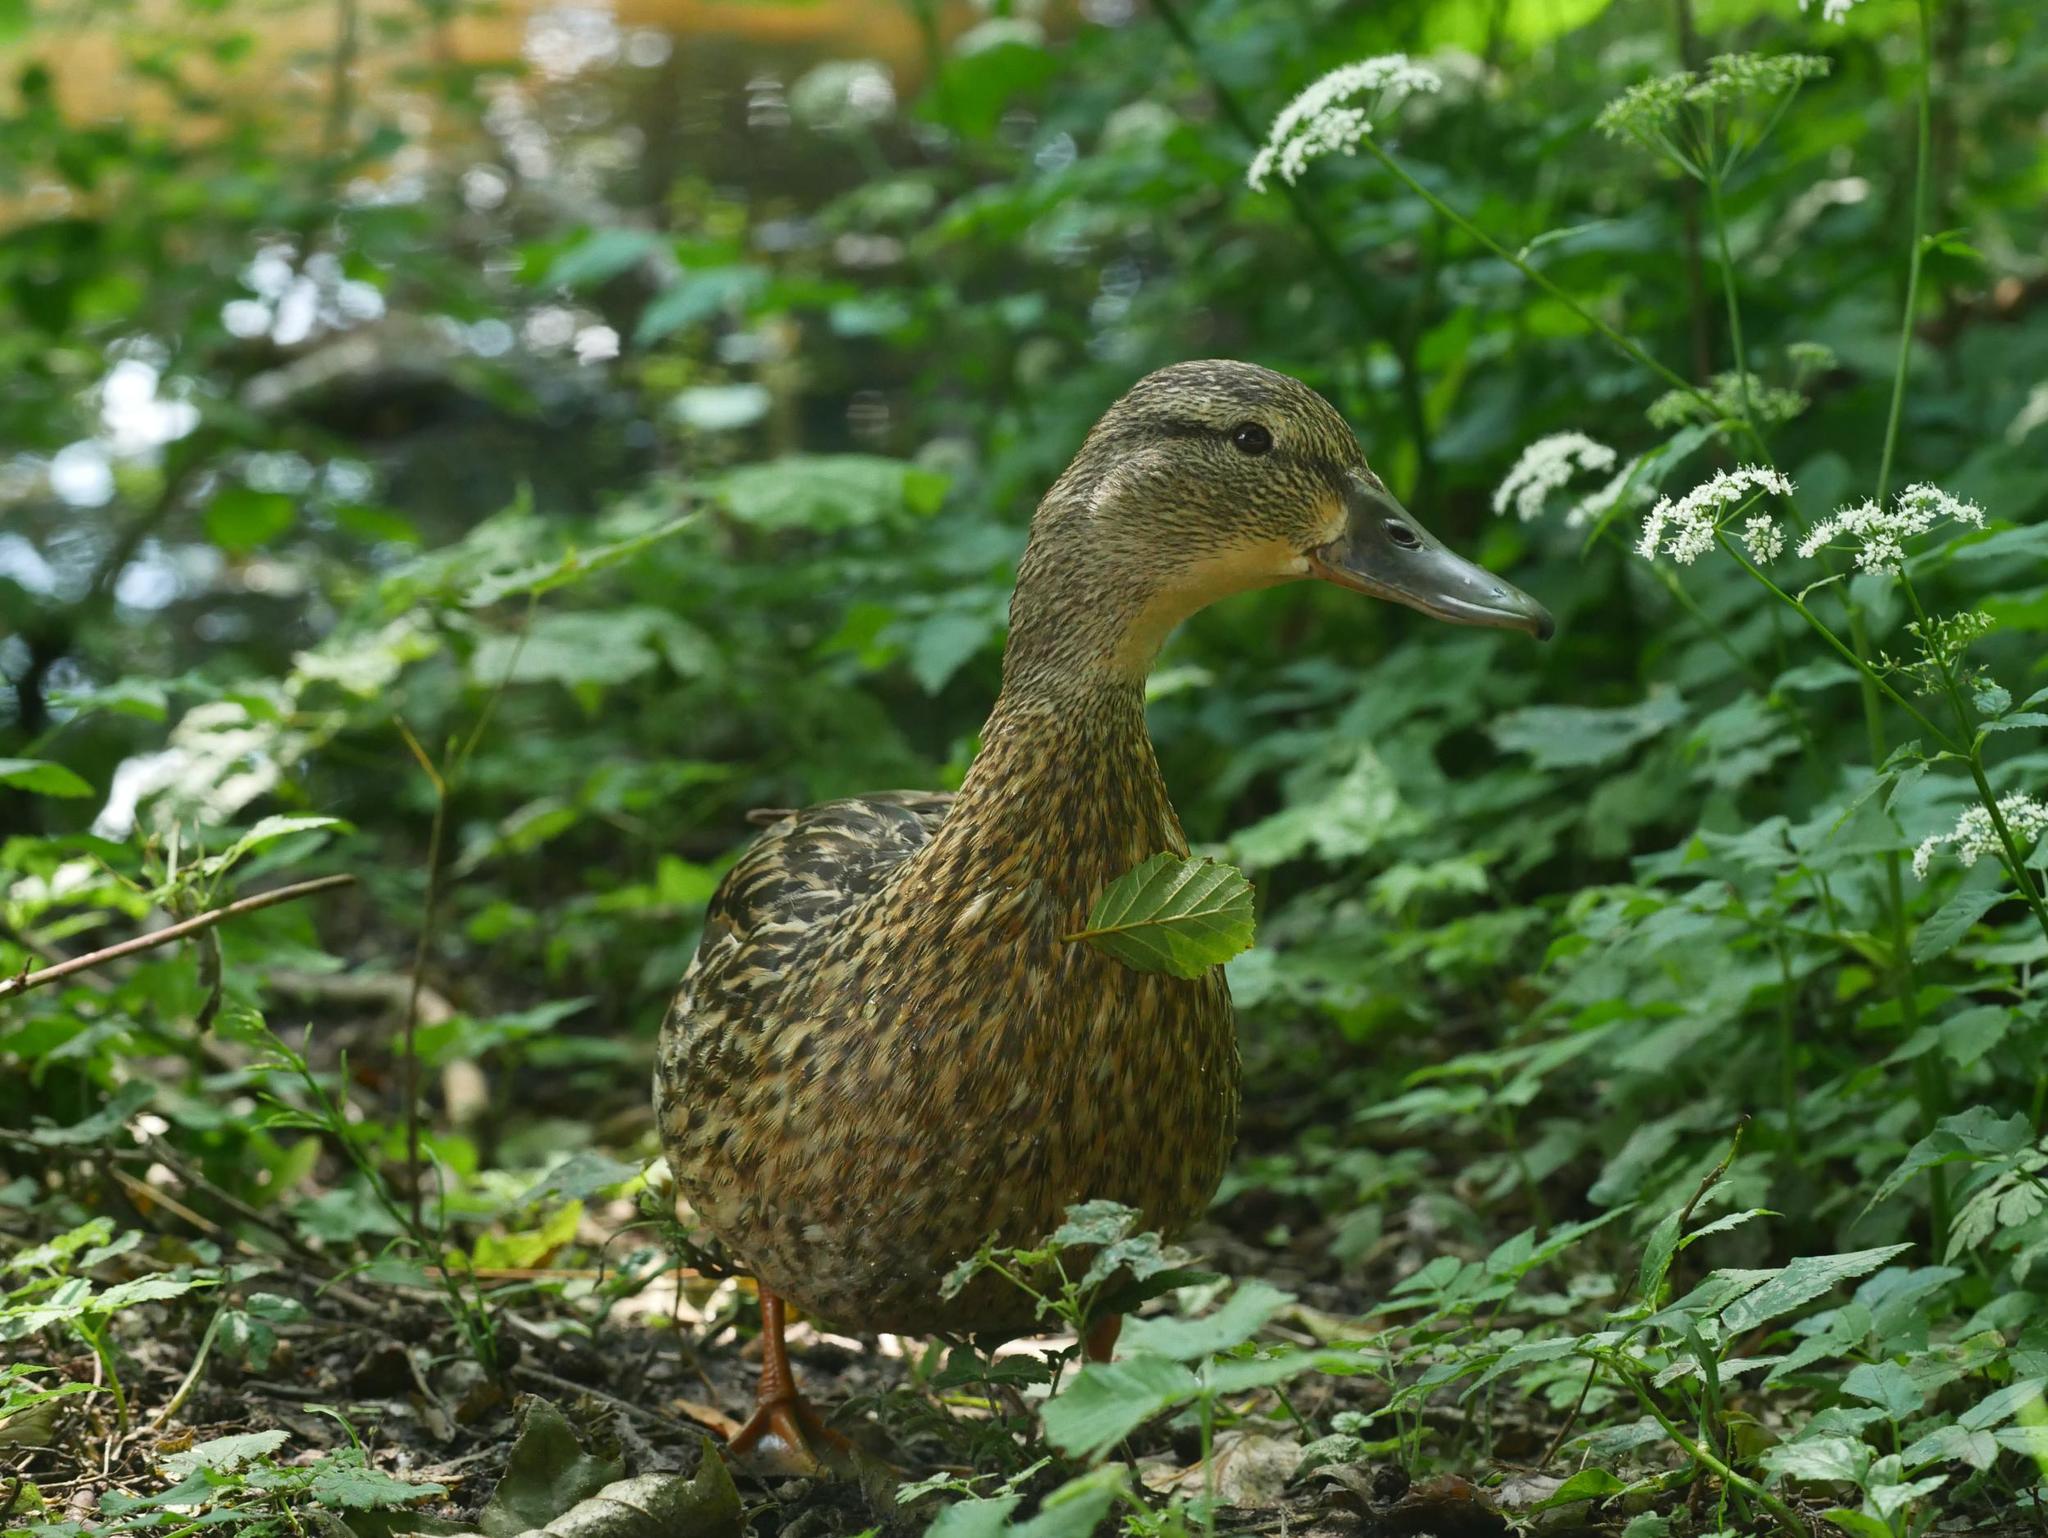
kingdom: Animalia
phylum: Chordata
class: Aves
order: Anseriformes
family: Anatidae
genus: Anas
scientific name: Anas platyrhynchos
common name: Mallard
